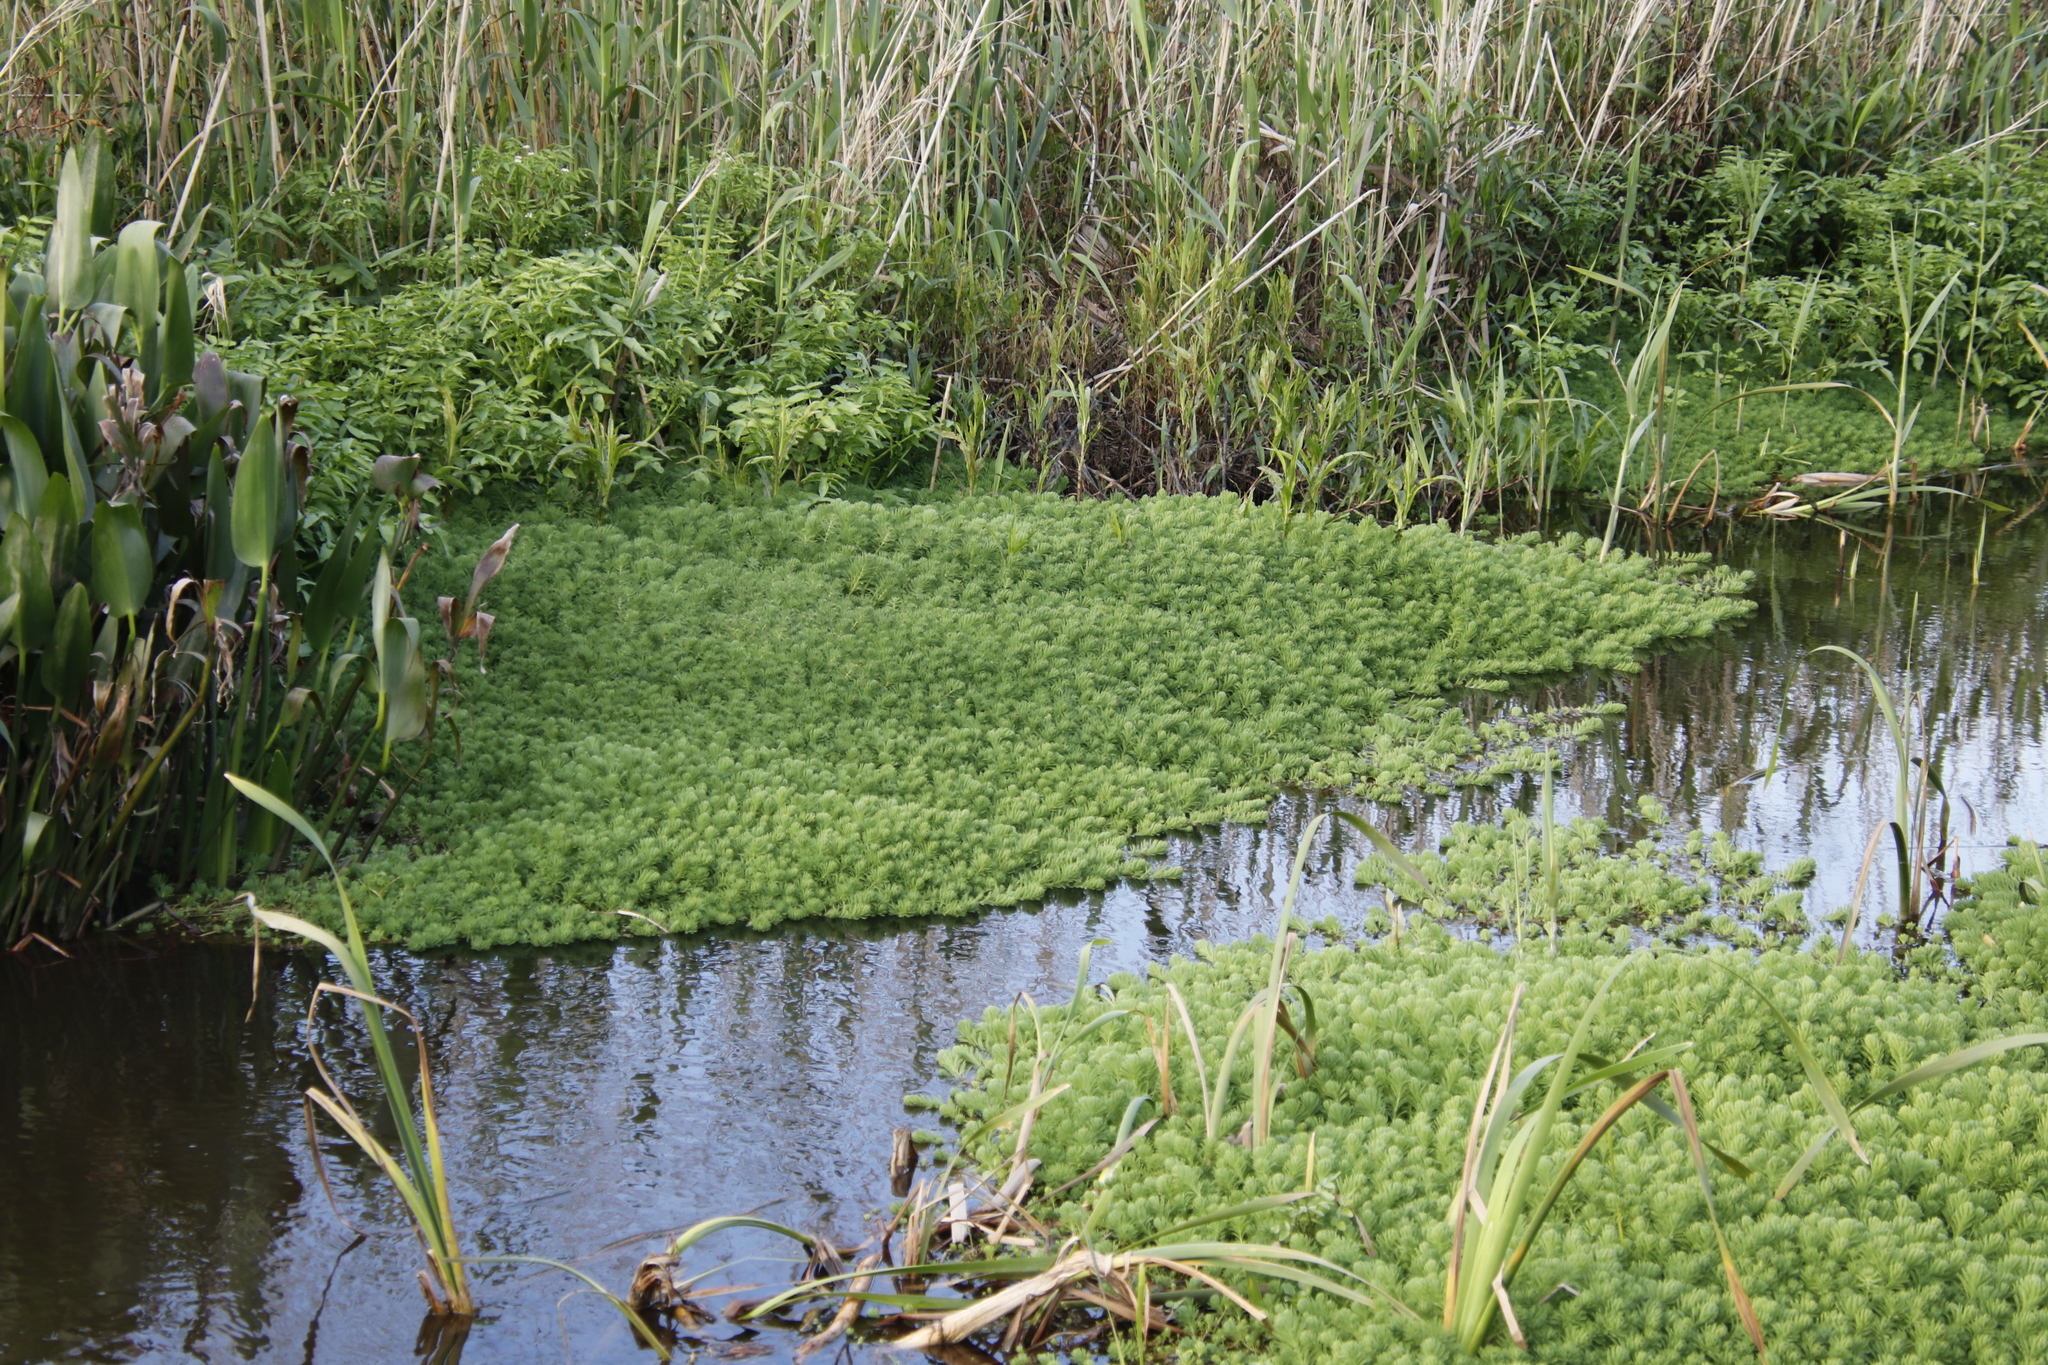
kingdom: Plantae
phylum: Tracheophyta
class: Magnoliopsida
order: Saxifragales
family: Haloragaceae
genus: Myriophyllum
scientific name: Myriophyllum aquaticum
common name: Parrot's feather
